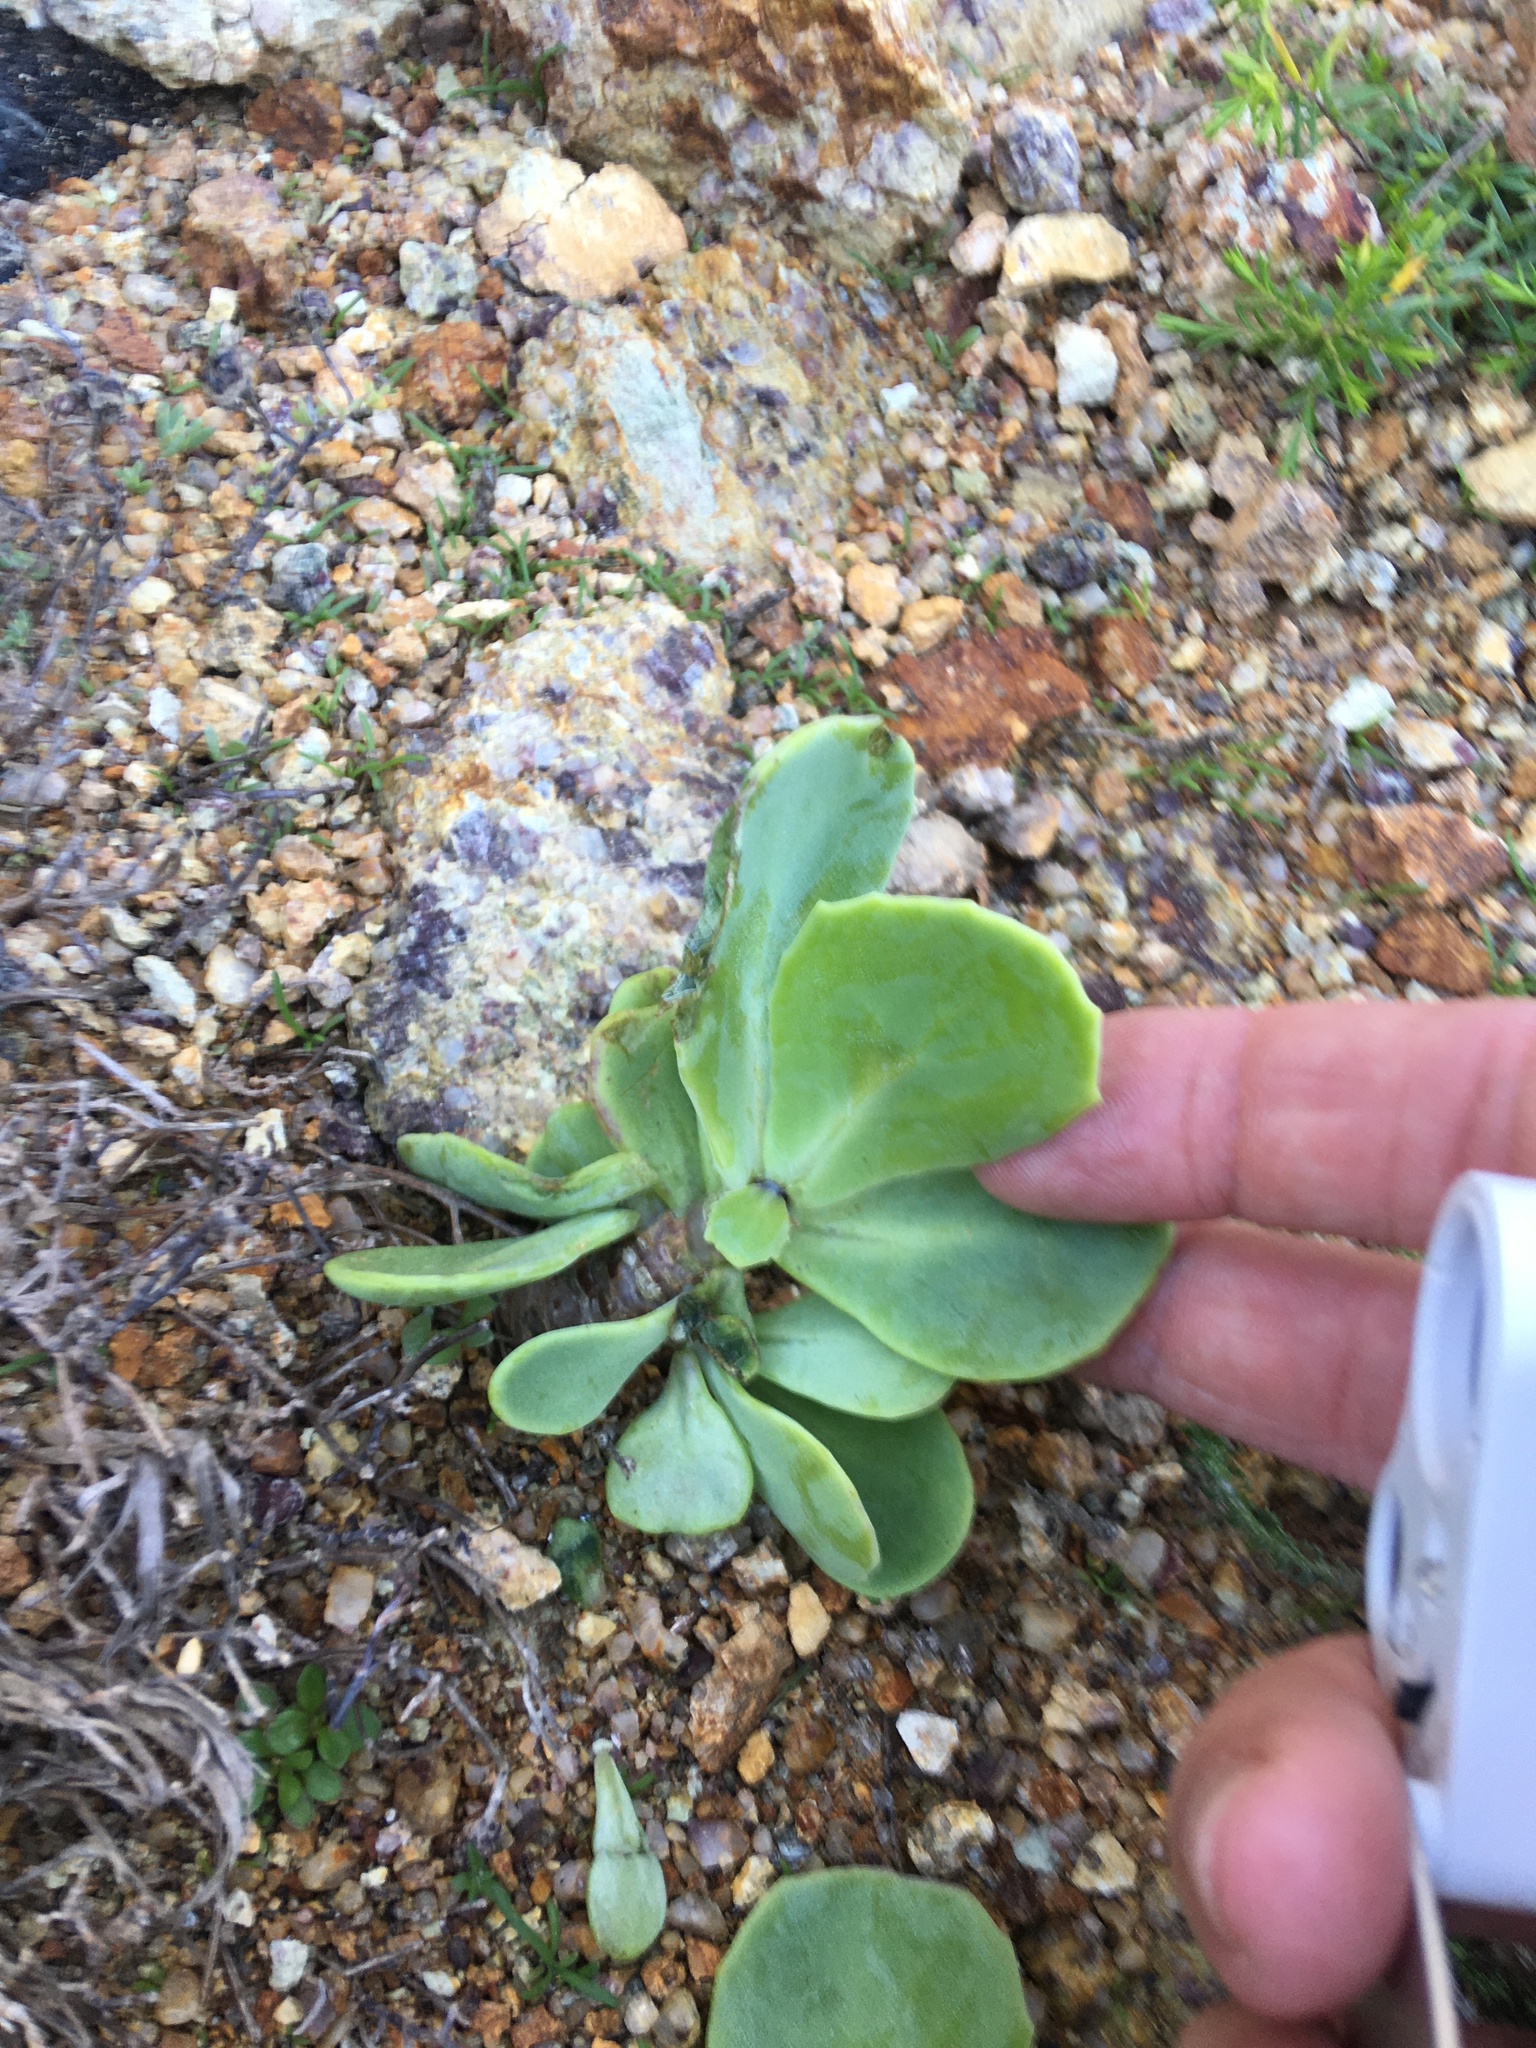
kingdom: Plantae
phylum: Tracheophyta
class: Magnoliopsida
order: Asterales
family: Asteraceae
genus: Othonna
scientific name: Othonna dentata
